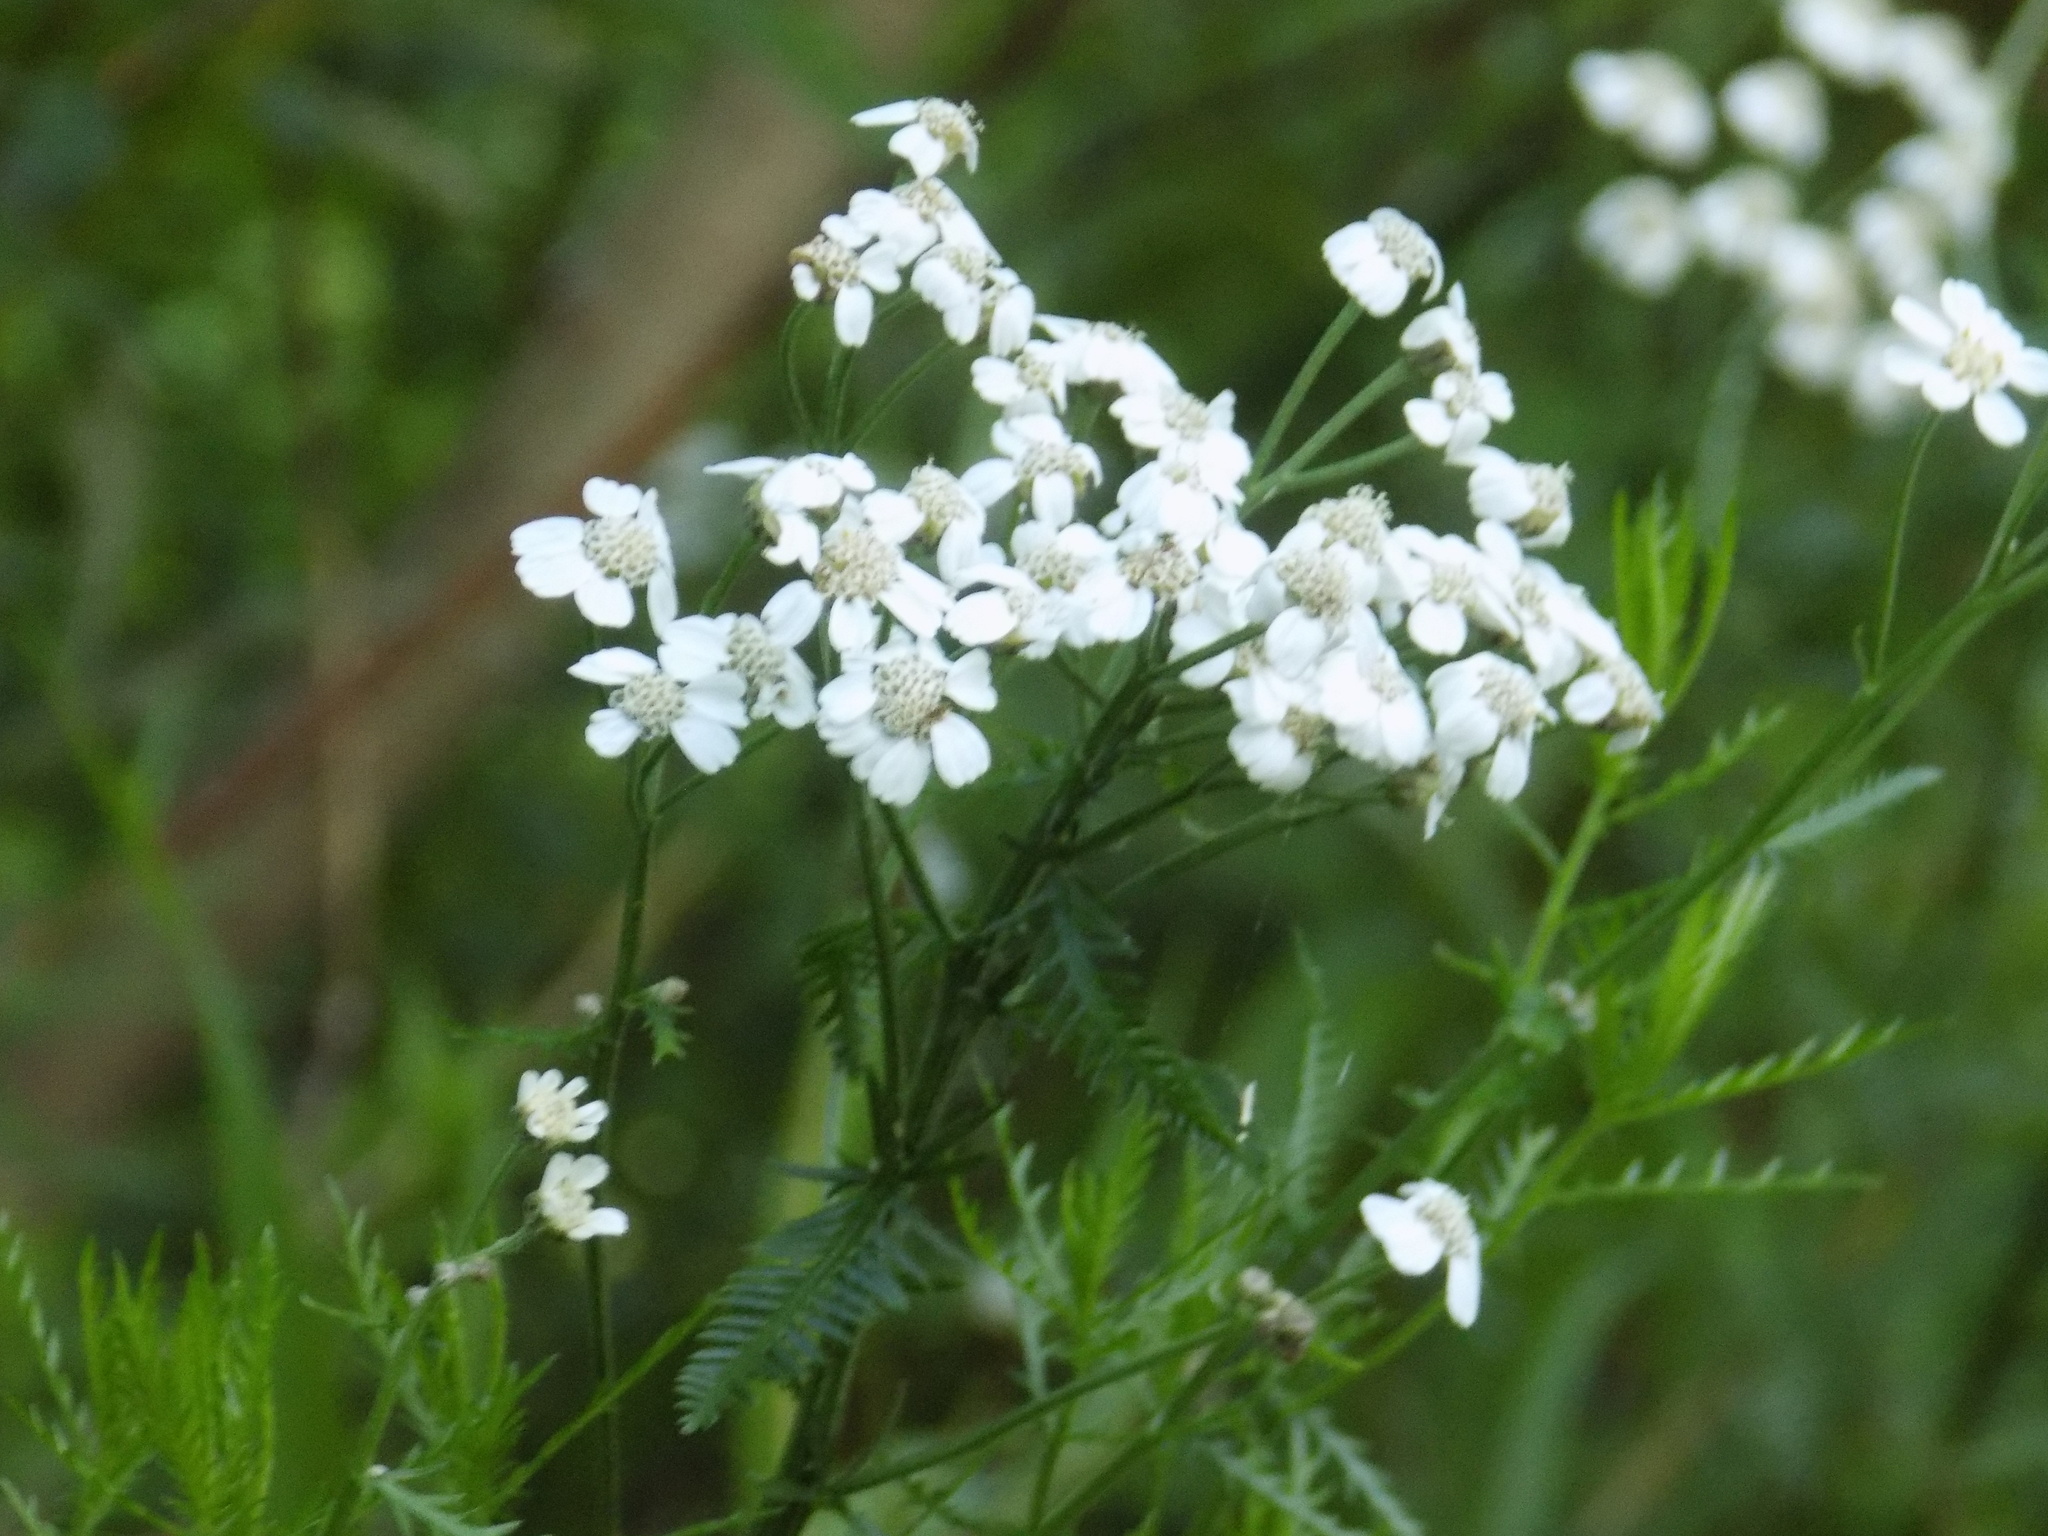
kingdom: Plantae
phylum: Tracheophyta
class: Magnoliopsida
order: Asterales
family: Asteraceae
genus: Achillea
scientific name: Achillea impatiens
